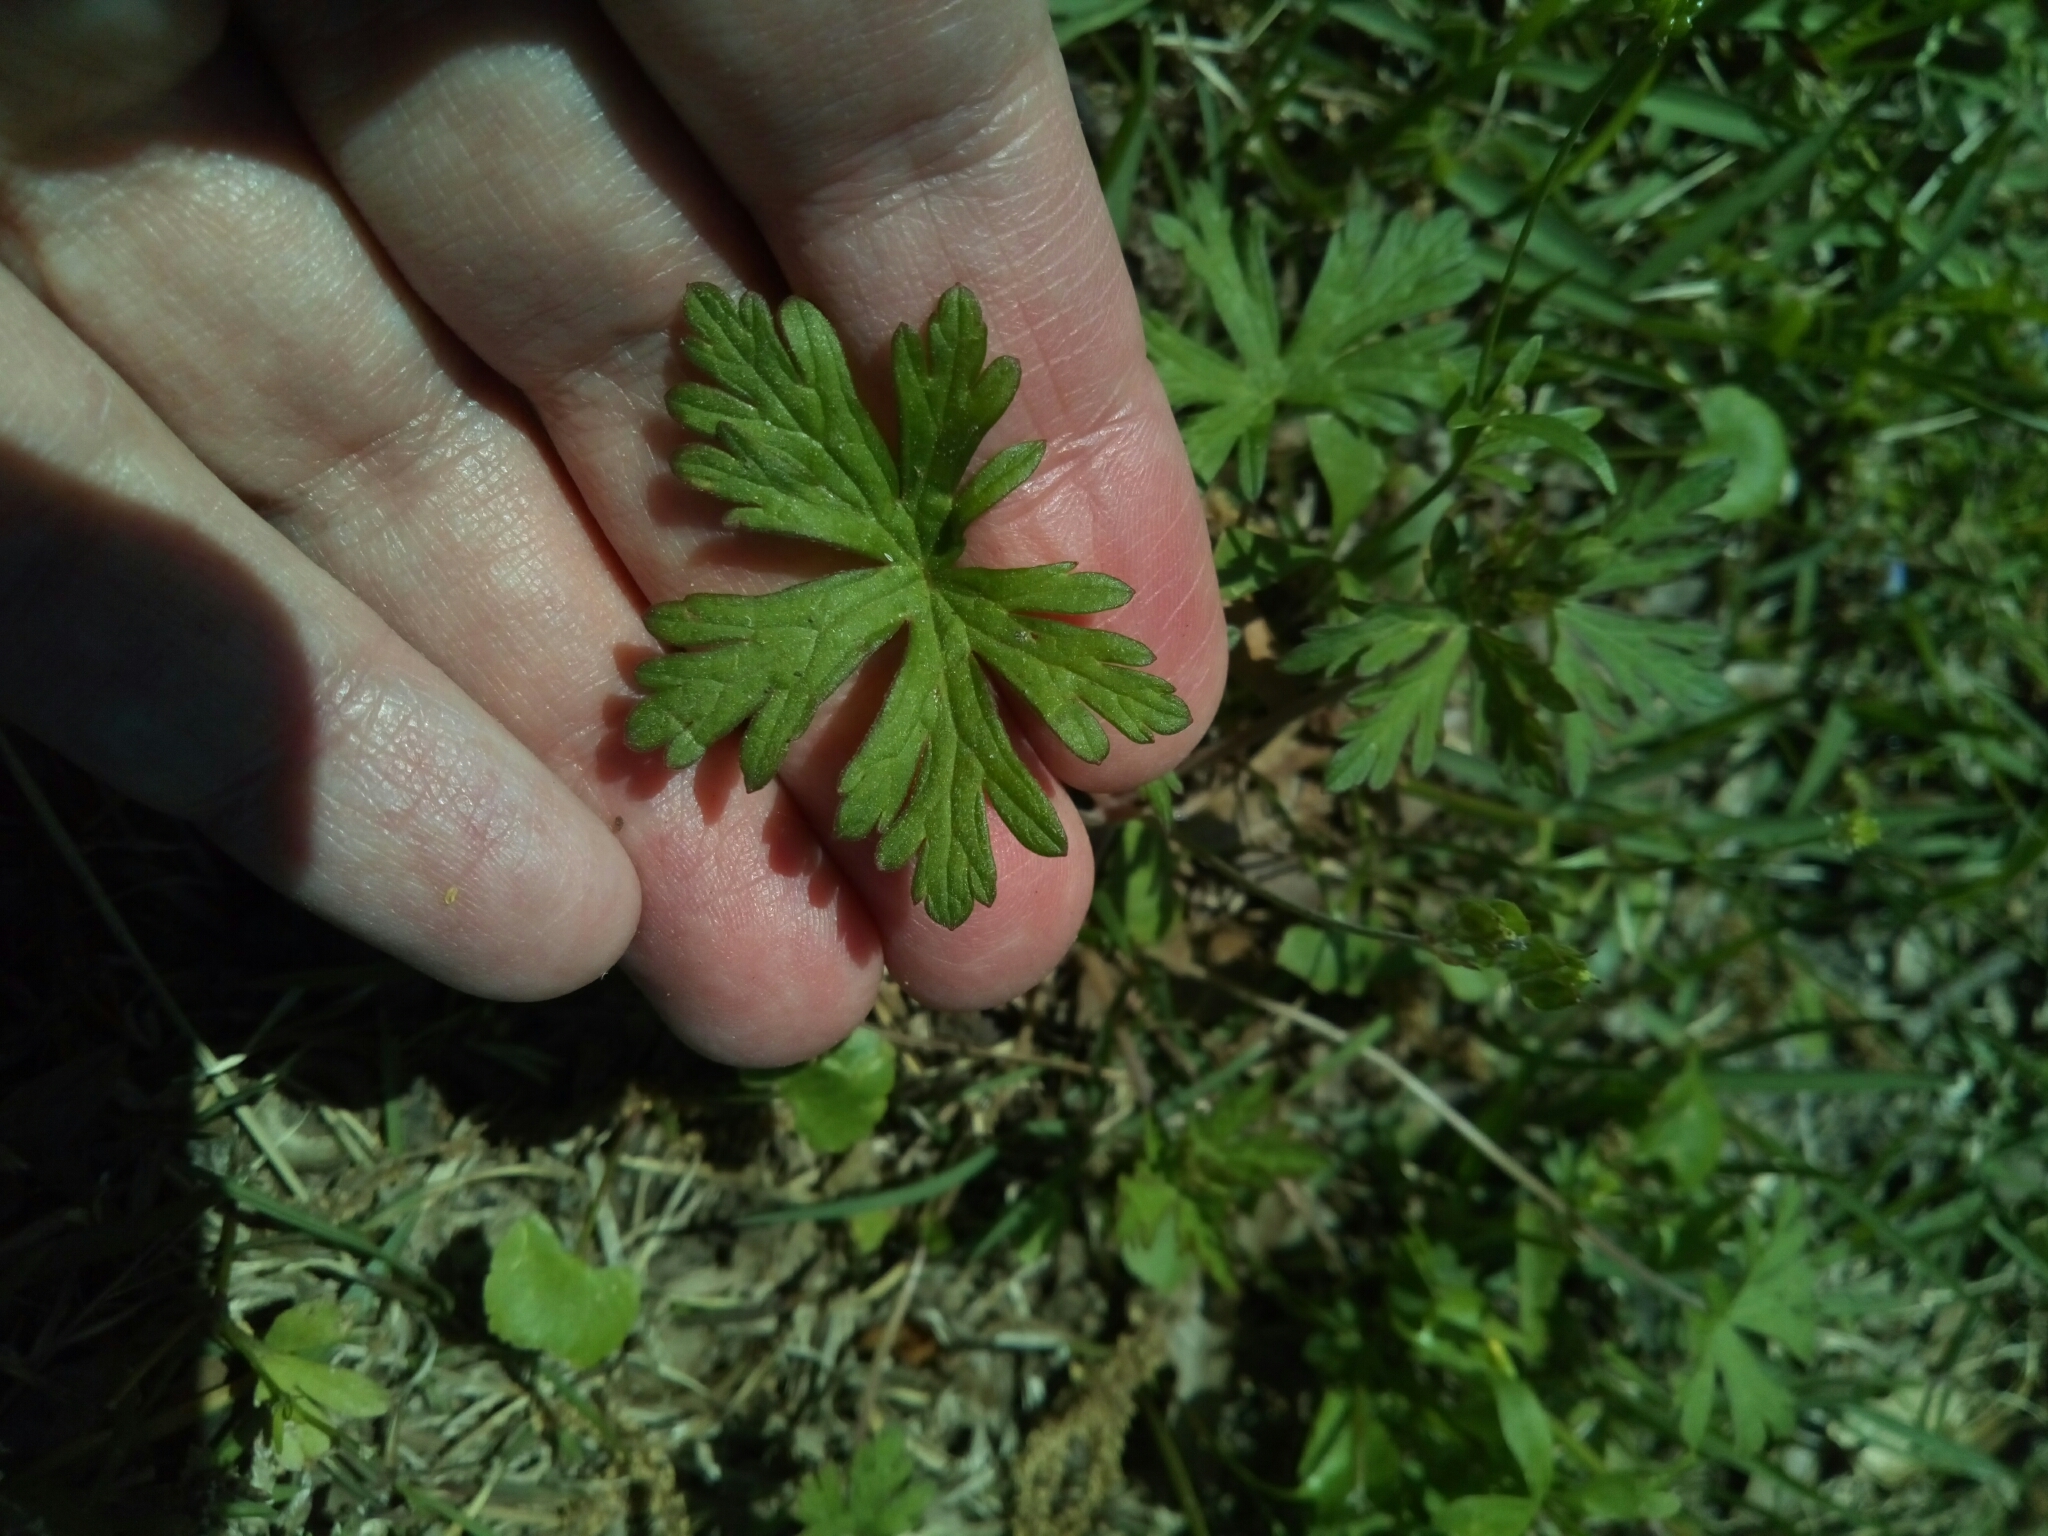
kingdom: Plantae
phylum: Tracheophyta
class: Magnoliopsida
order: Geraniales
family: Geraniaceae
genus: Geranium
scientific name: Geranium carolinianum
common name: Carolina crane's-bill
